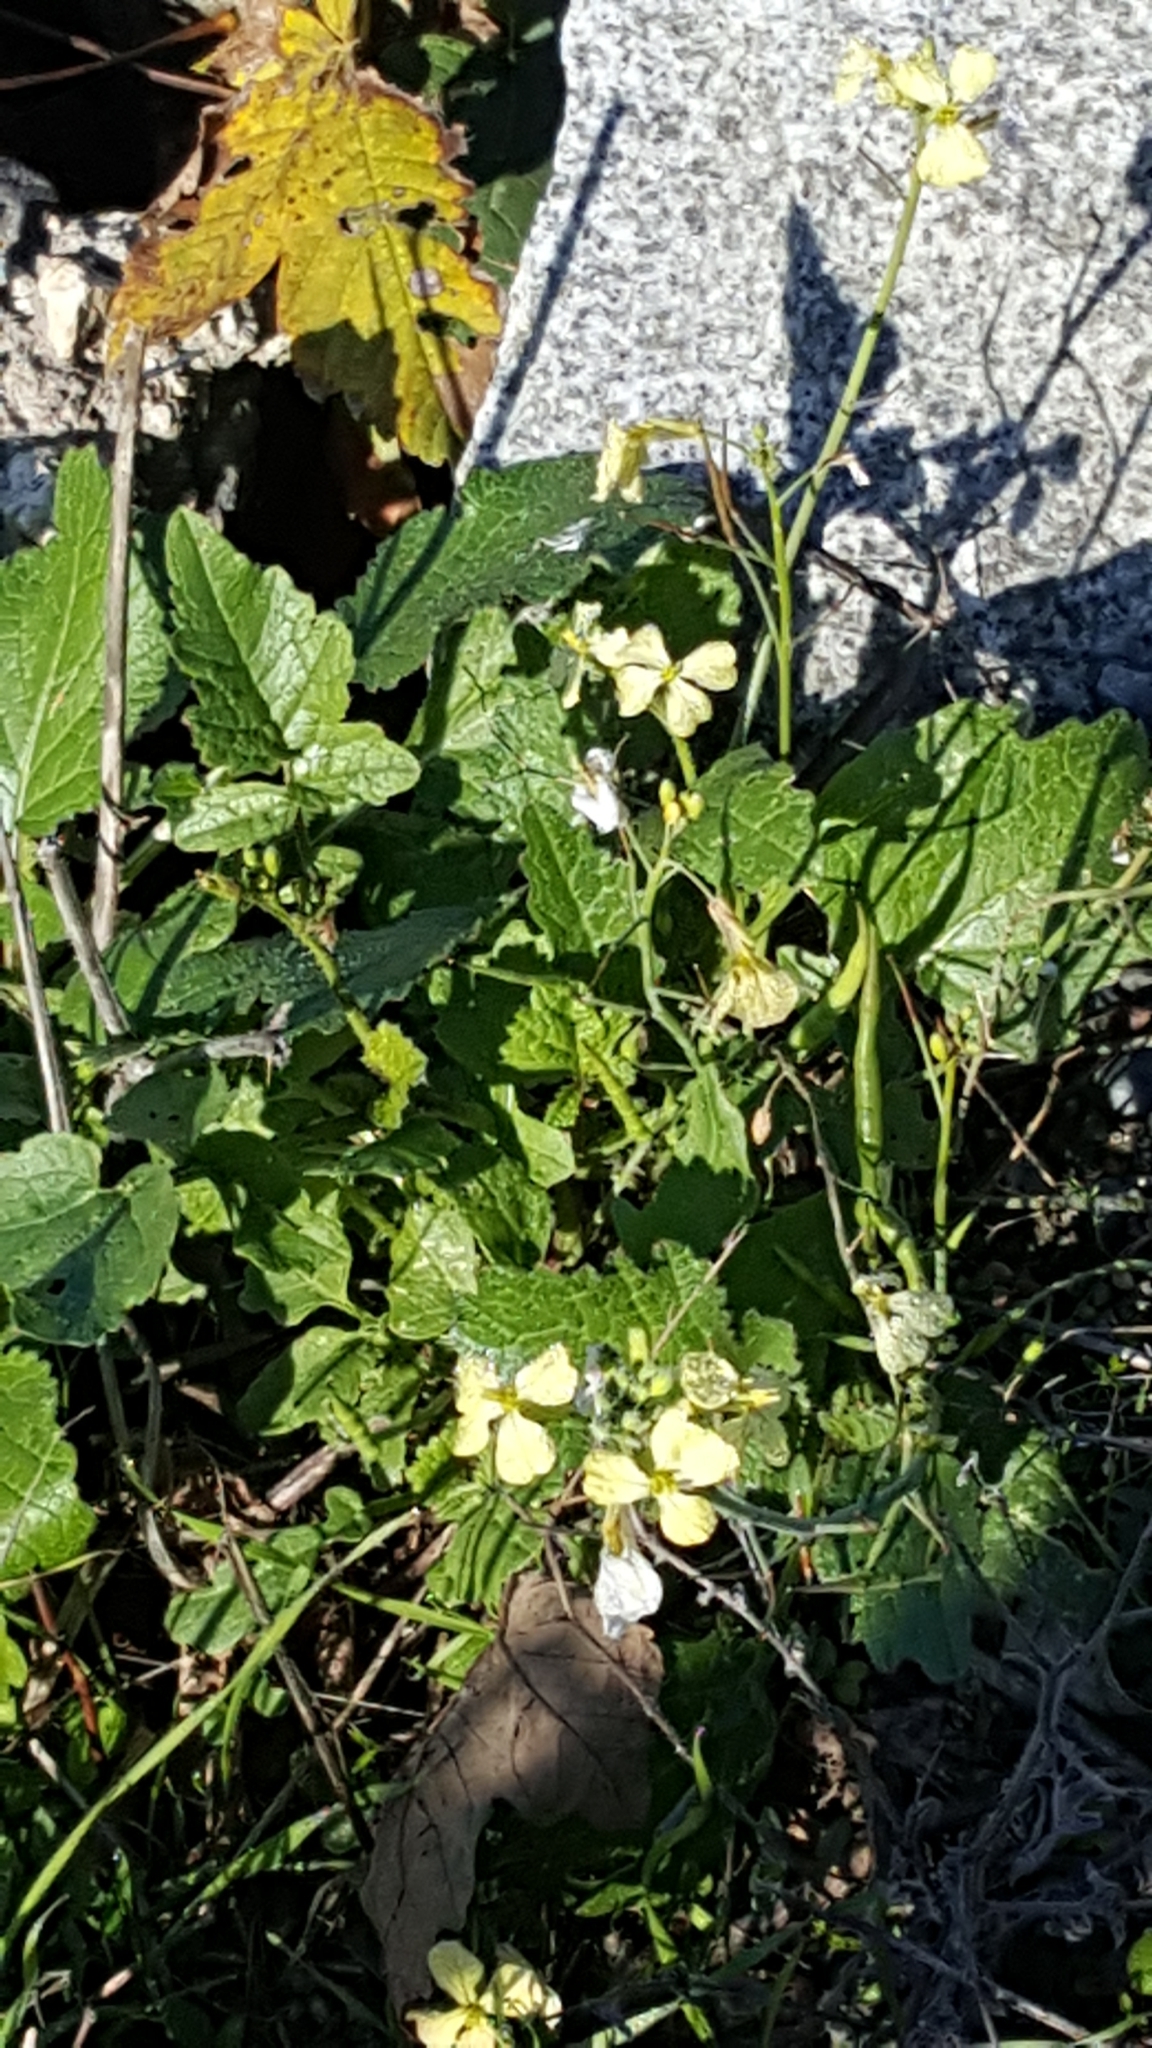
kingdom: Plantae
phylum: Tracheophyta
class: Magnoliopsida
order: Brassicales
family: Brassicaceae
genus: Raphanus
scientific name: Raphanus raphanistrum
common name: Wild radish
